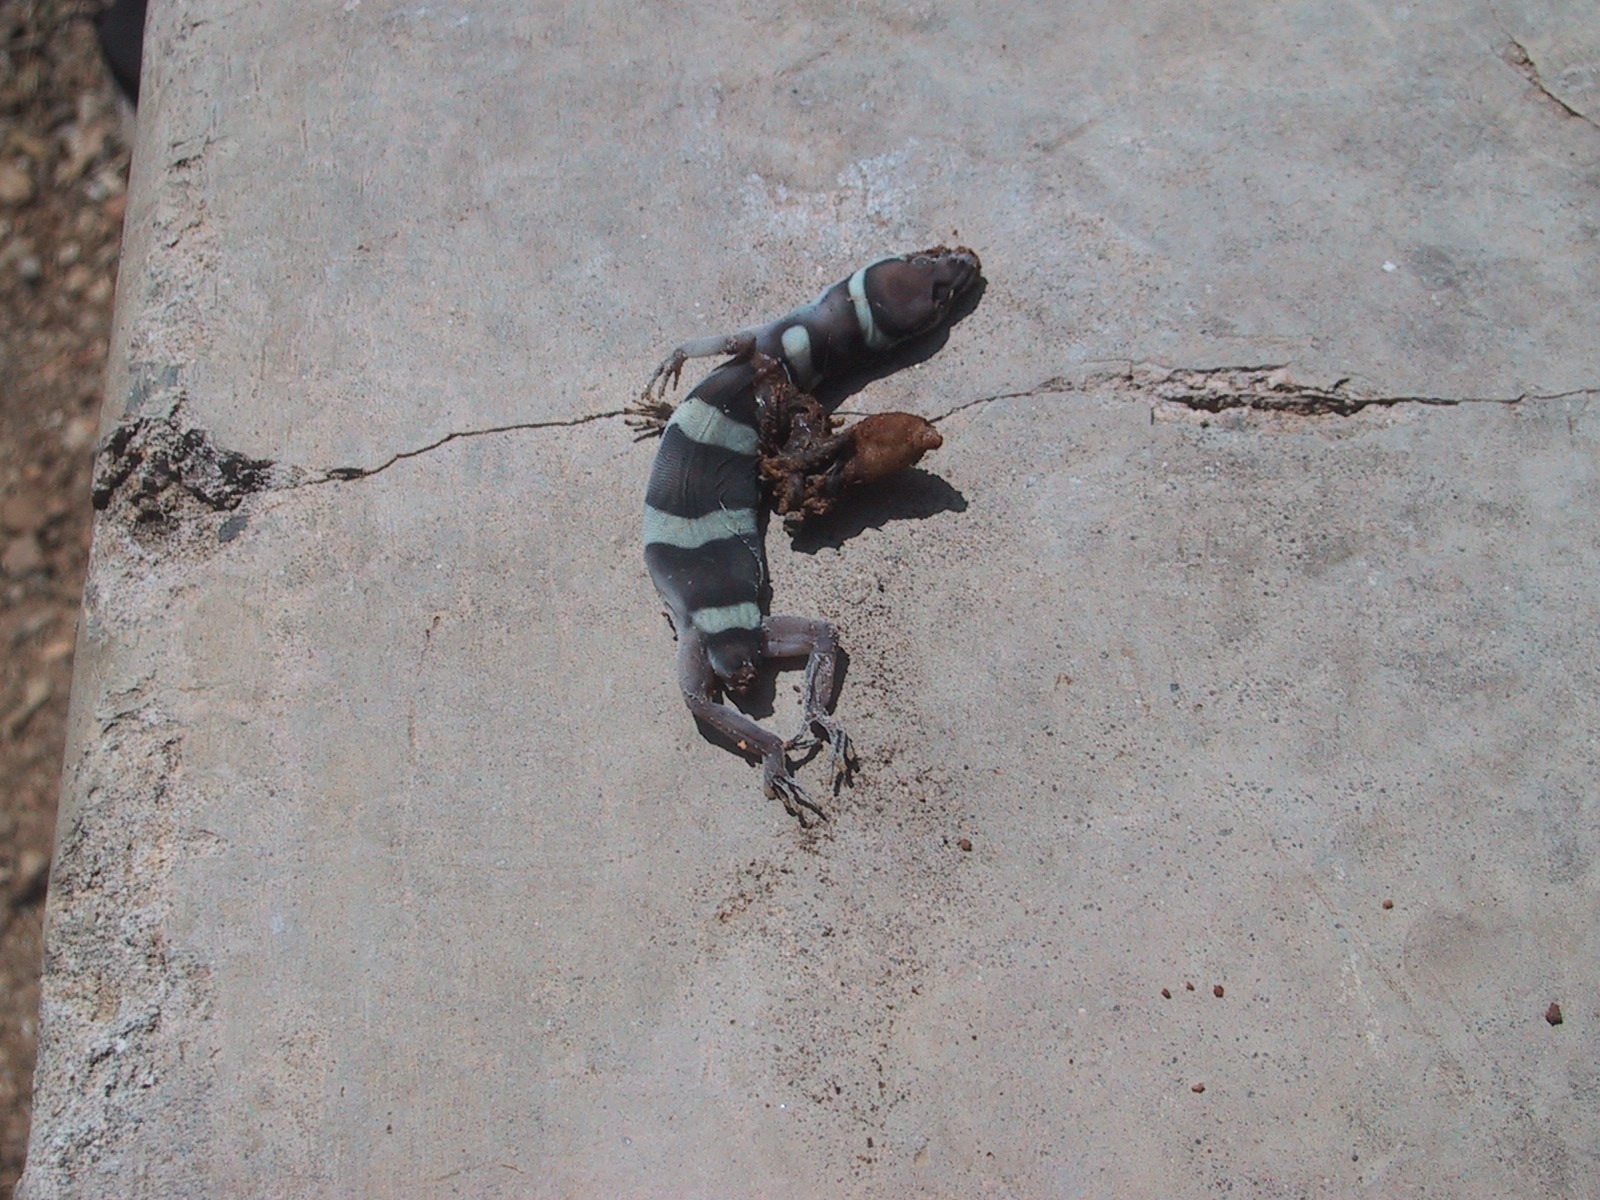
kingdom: Animalia
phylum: Chordata
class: Squamata
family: Eublepharidae
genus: Coleonyx
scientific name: Coleonyx fasciatus
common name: Black banded gecko
